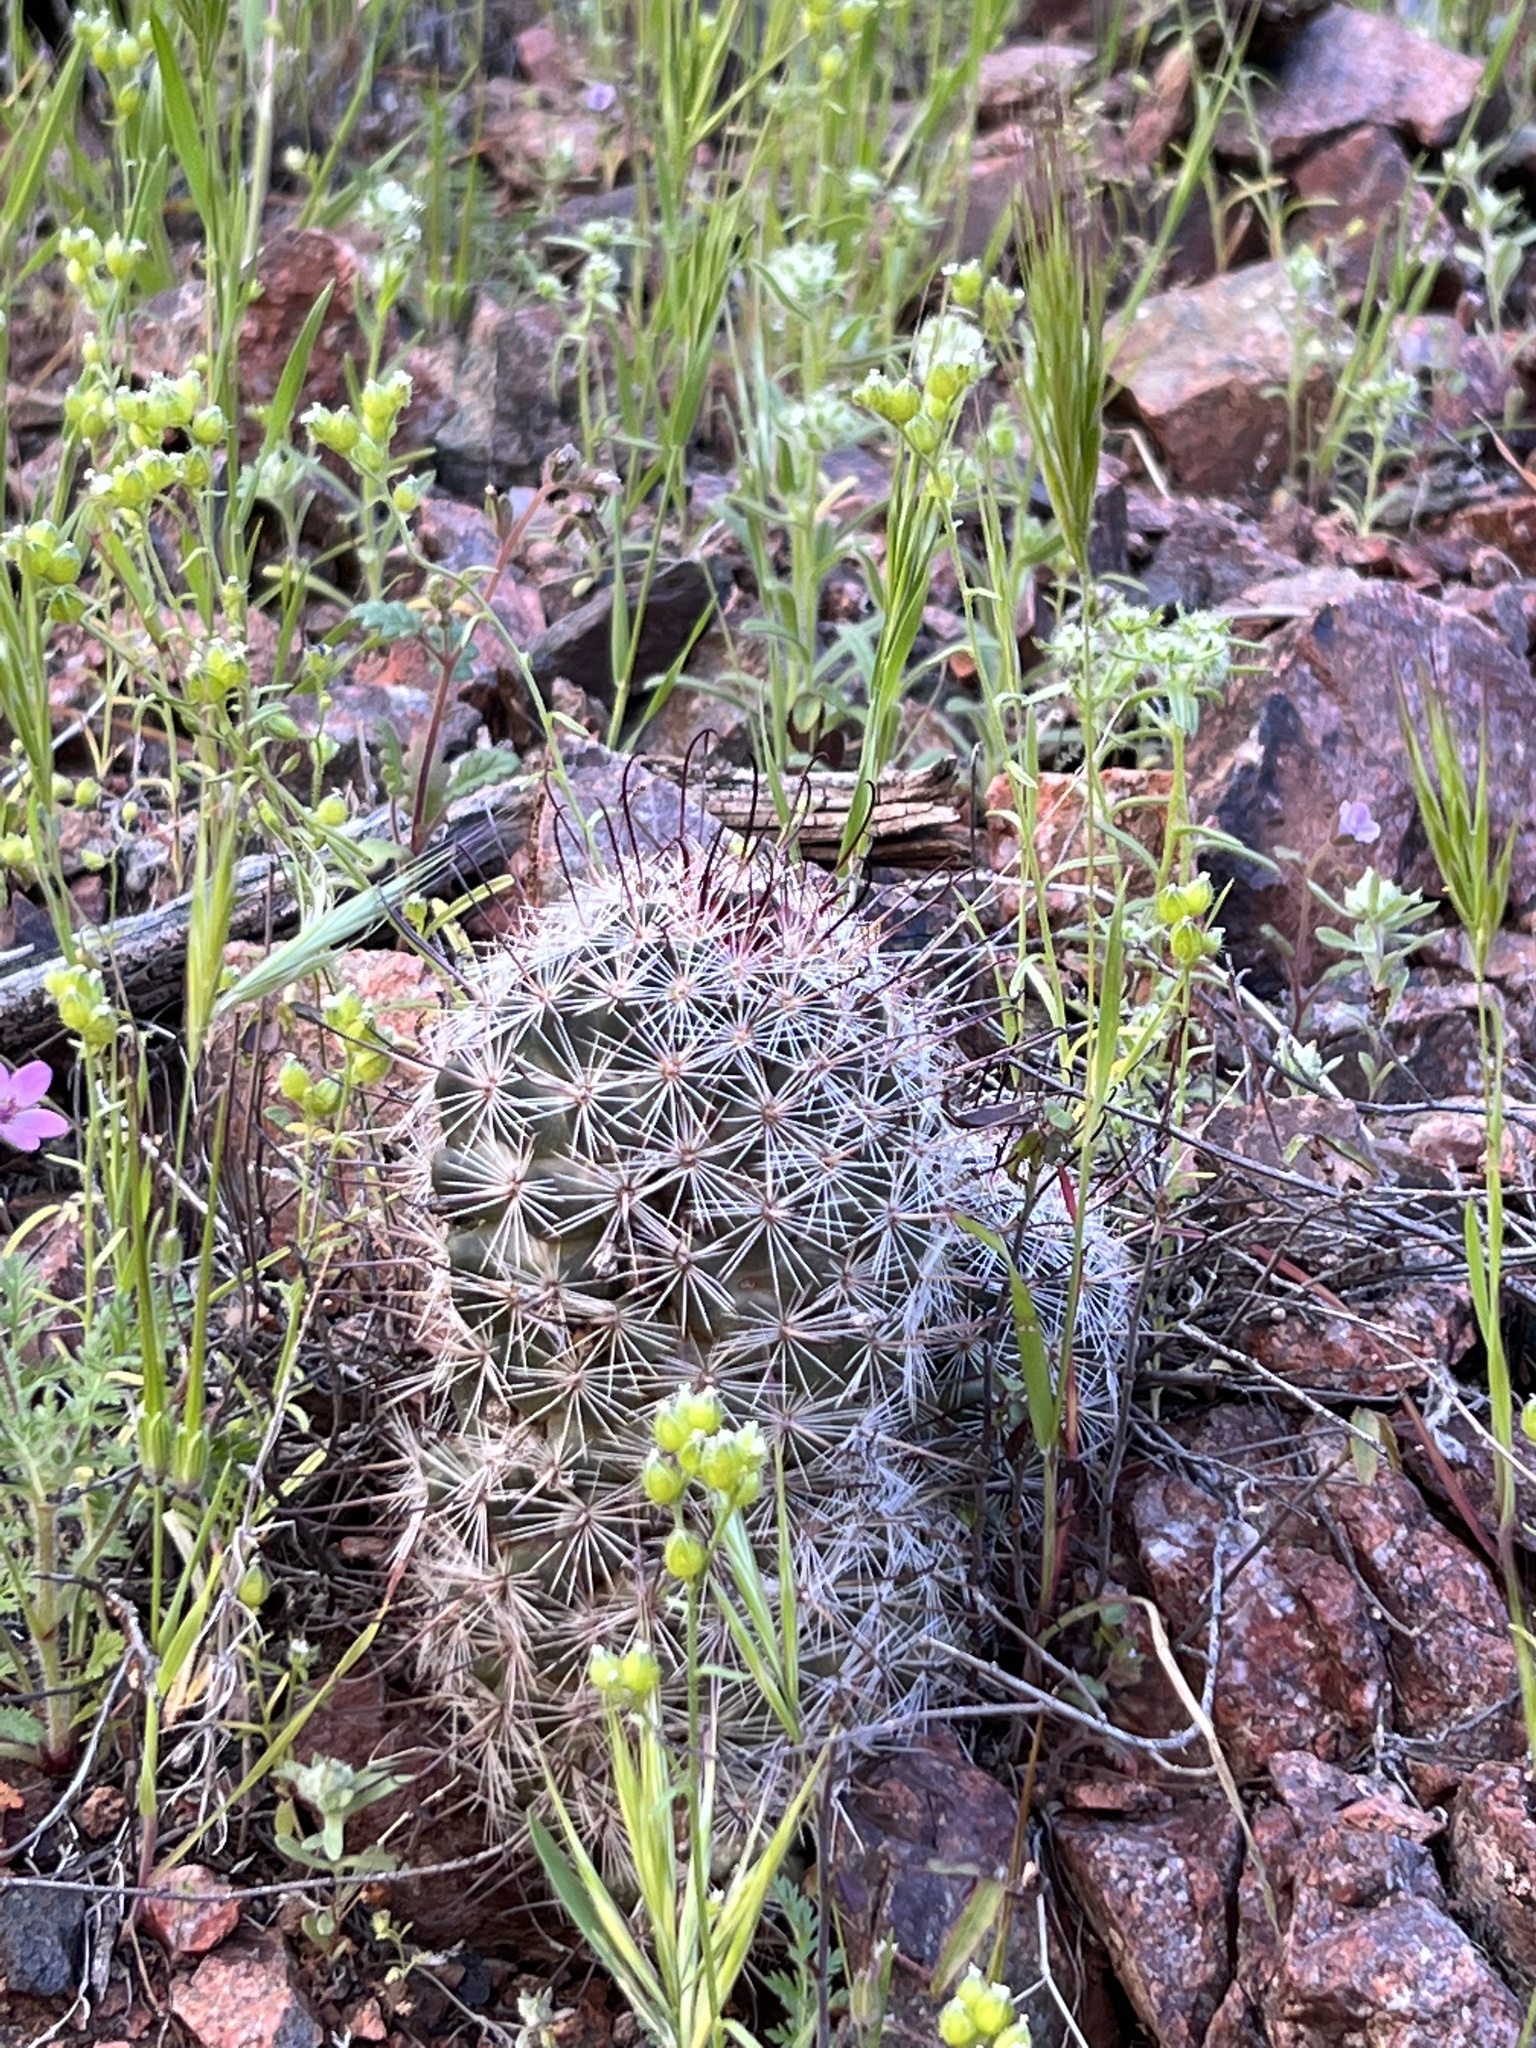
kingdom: Plantae
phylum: Tracheophyta
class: Magnoliopsida
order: Caryophyllales
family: Cactaceae
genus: Cochemiea
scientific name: Cochemiea grahamii
